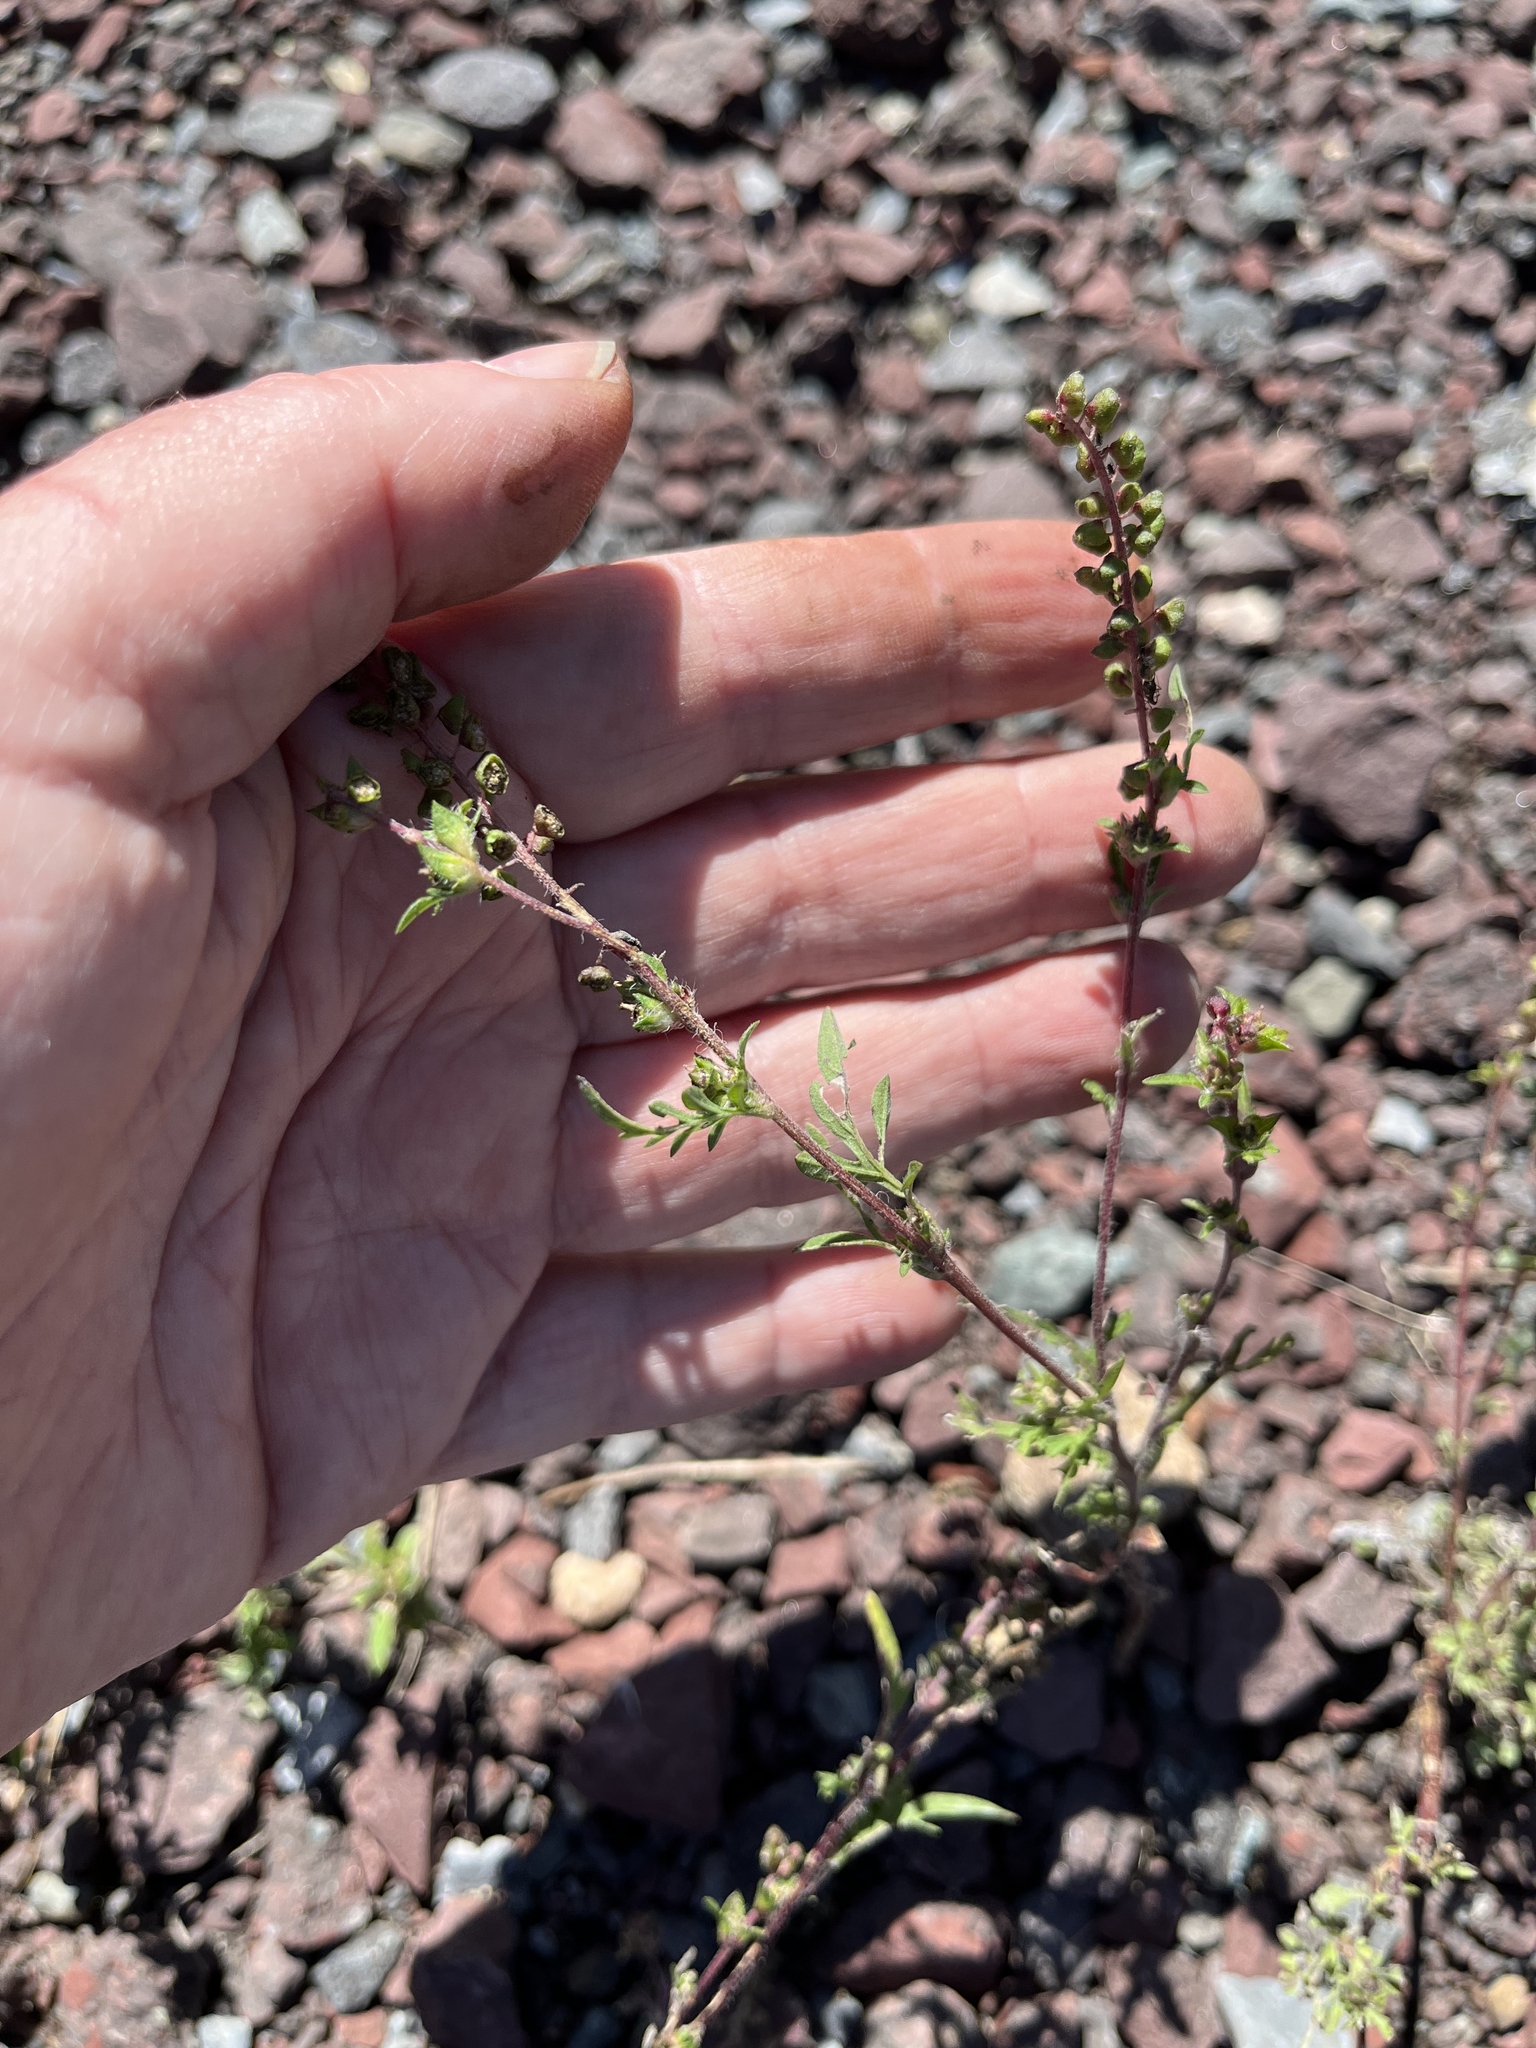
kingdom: Plantae
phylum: Tracheophyta
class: Magnoliopsida
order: Asterales
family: Asteraceae
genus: Ambrosia
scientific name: Ambrosia artemisiifolia
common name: Annual ragweed
